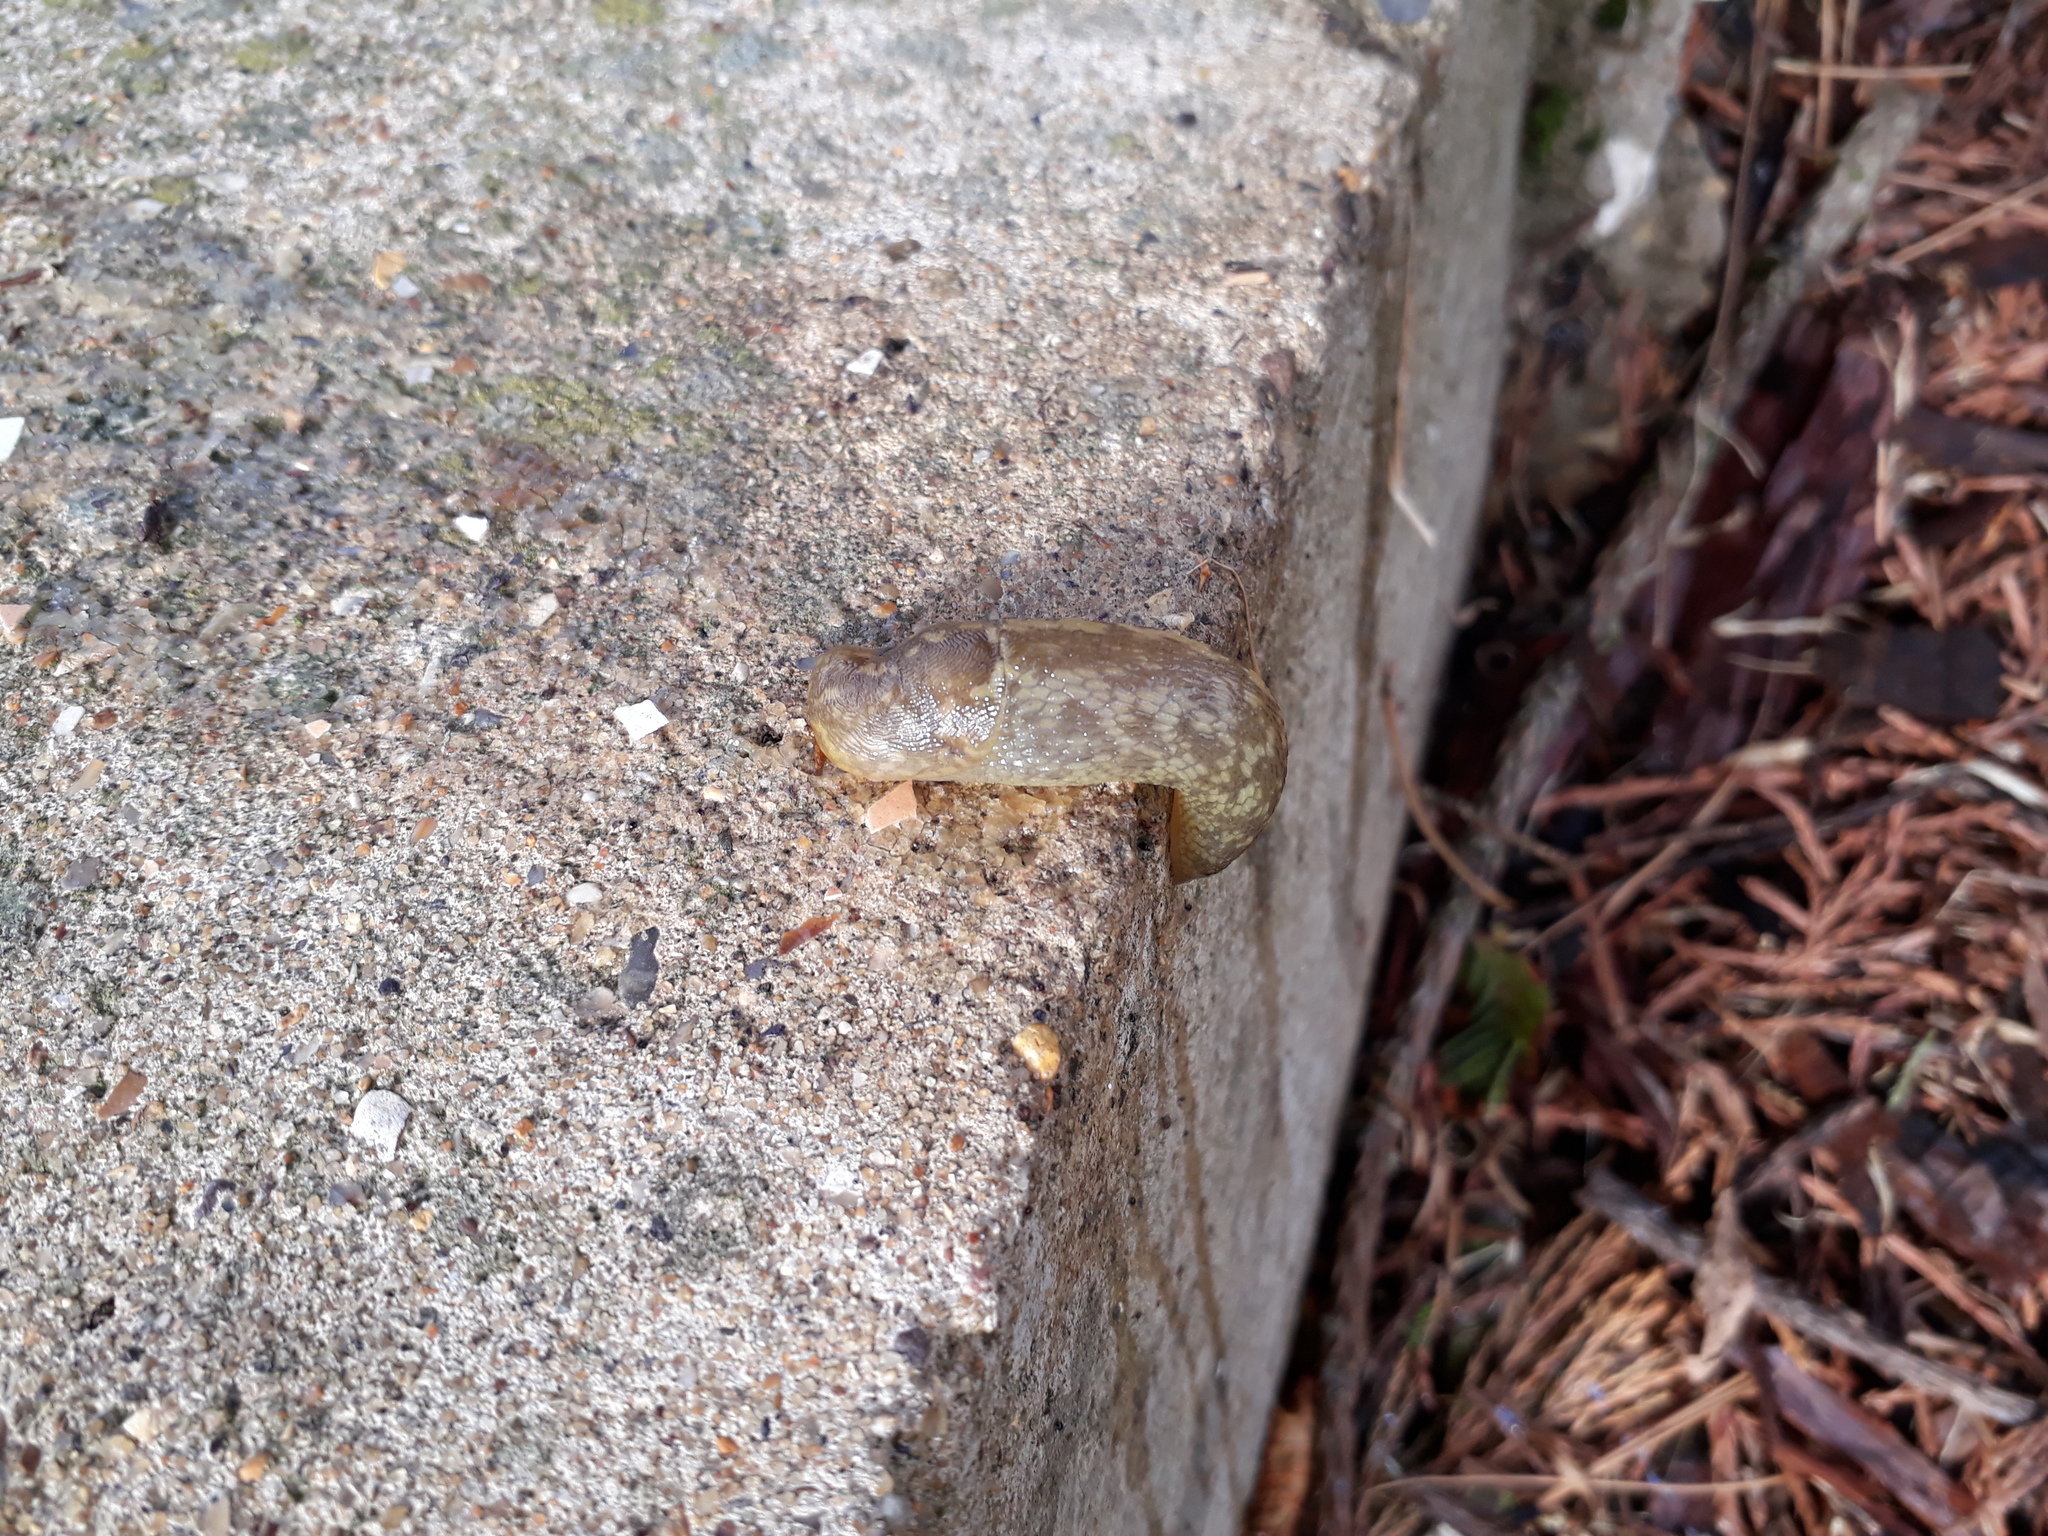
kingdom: Animalia
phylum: Mollusca
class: Gastropoda
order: Stylommatophora
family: Limacidae
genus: Limacus
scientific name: Limacus maculatus
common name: Irish yellow slug
